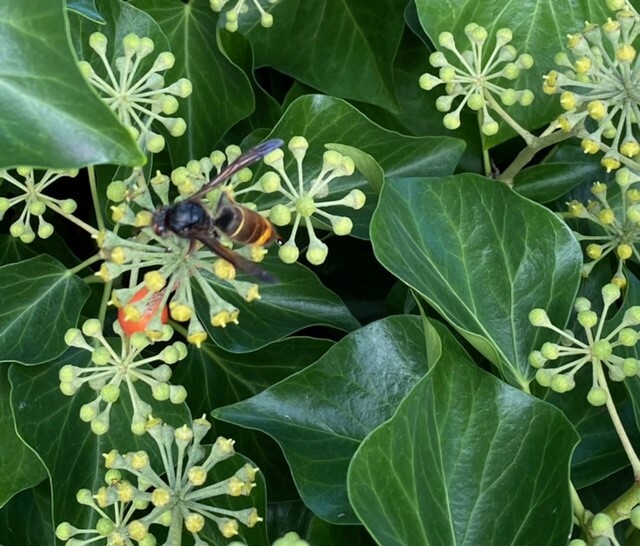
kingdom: Animalia
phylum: Arthropoda
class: Insecta
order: Hymenoptera
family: Vespidae
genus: Vespa
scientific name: Vespa velutina
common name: Asian hornet
